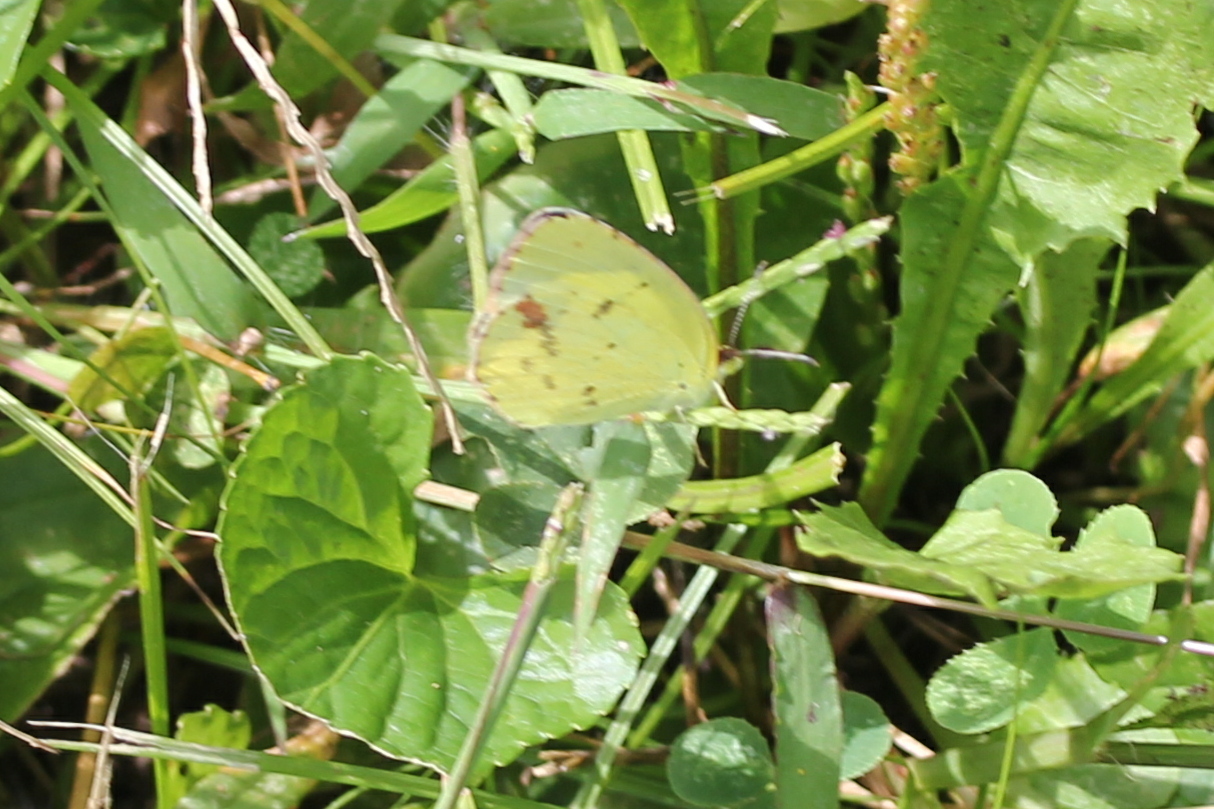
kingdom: Animalia
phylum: Arthropoda
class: Insecta
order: Lepidoptera
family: Pieridae
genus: Pyrisitia
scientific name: Pyrisitia lisa
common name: Little yellow
